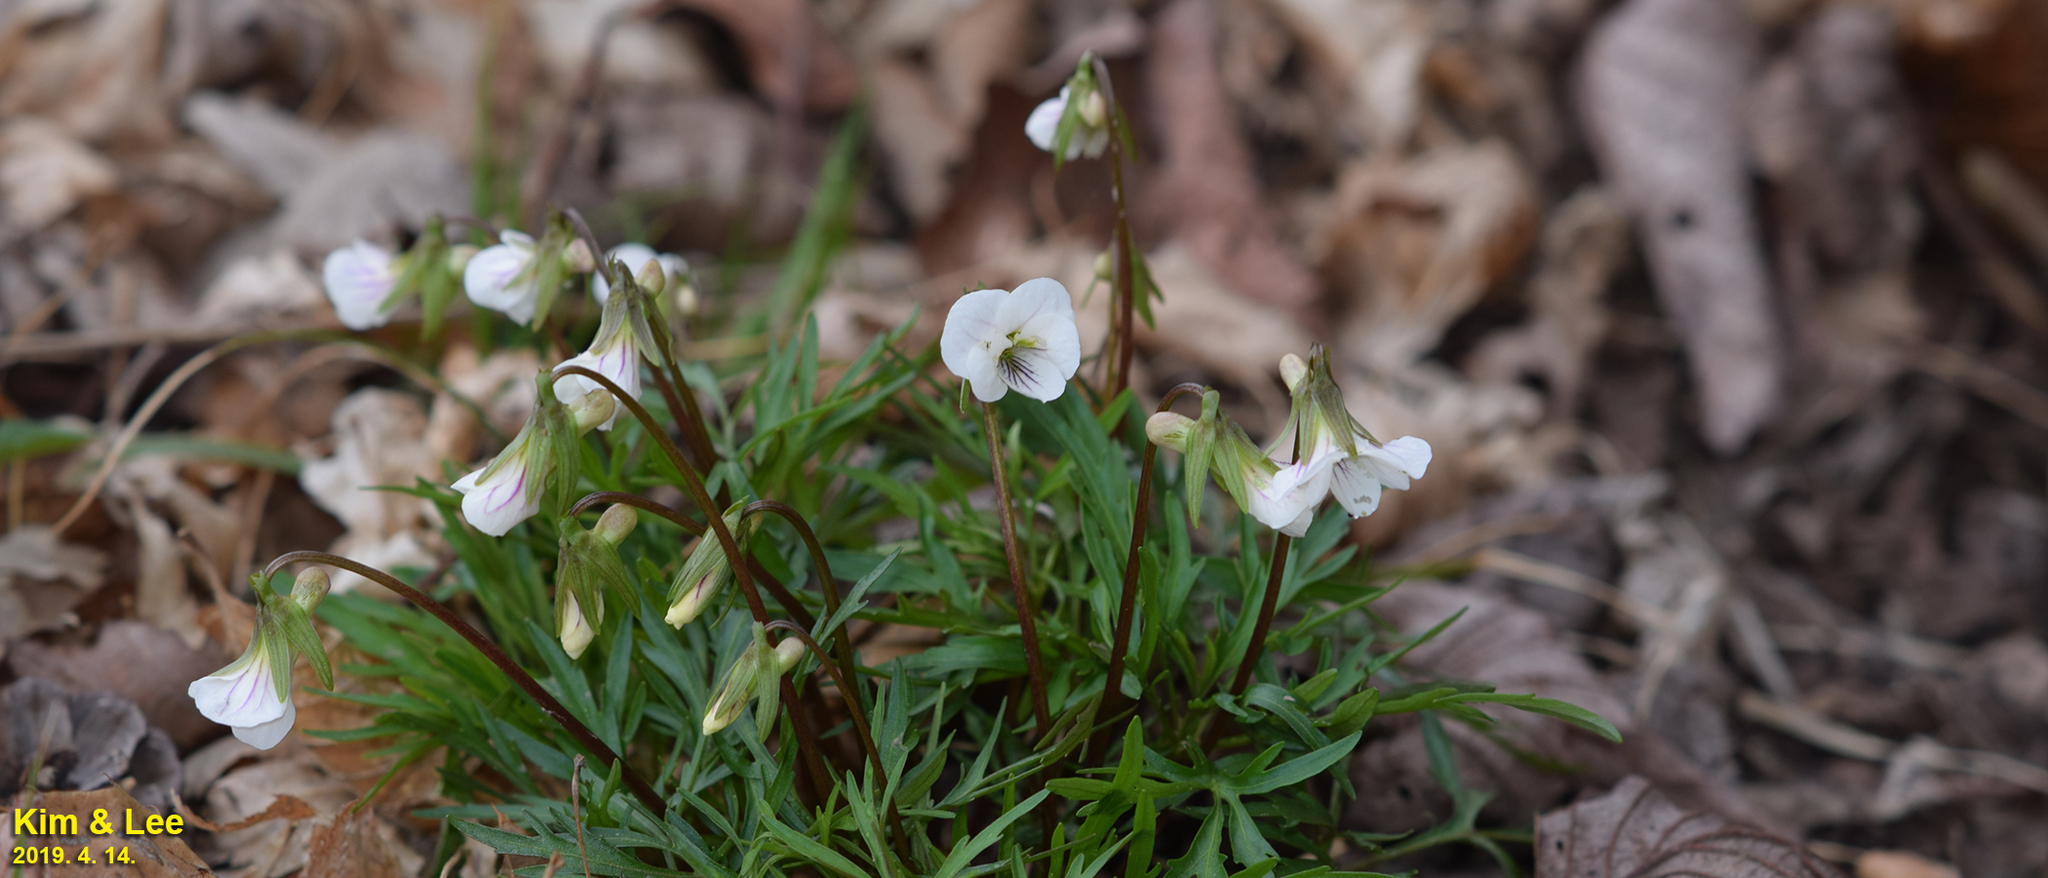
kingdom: Plantae
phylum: Tracheophyta
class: Magnoliopsida
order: Malpighiales
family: Violaceae
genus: Viola
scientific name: Viola albida
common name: Korean violet
